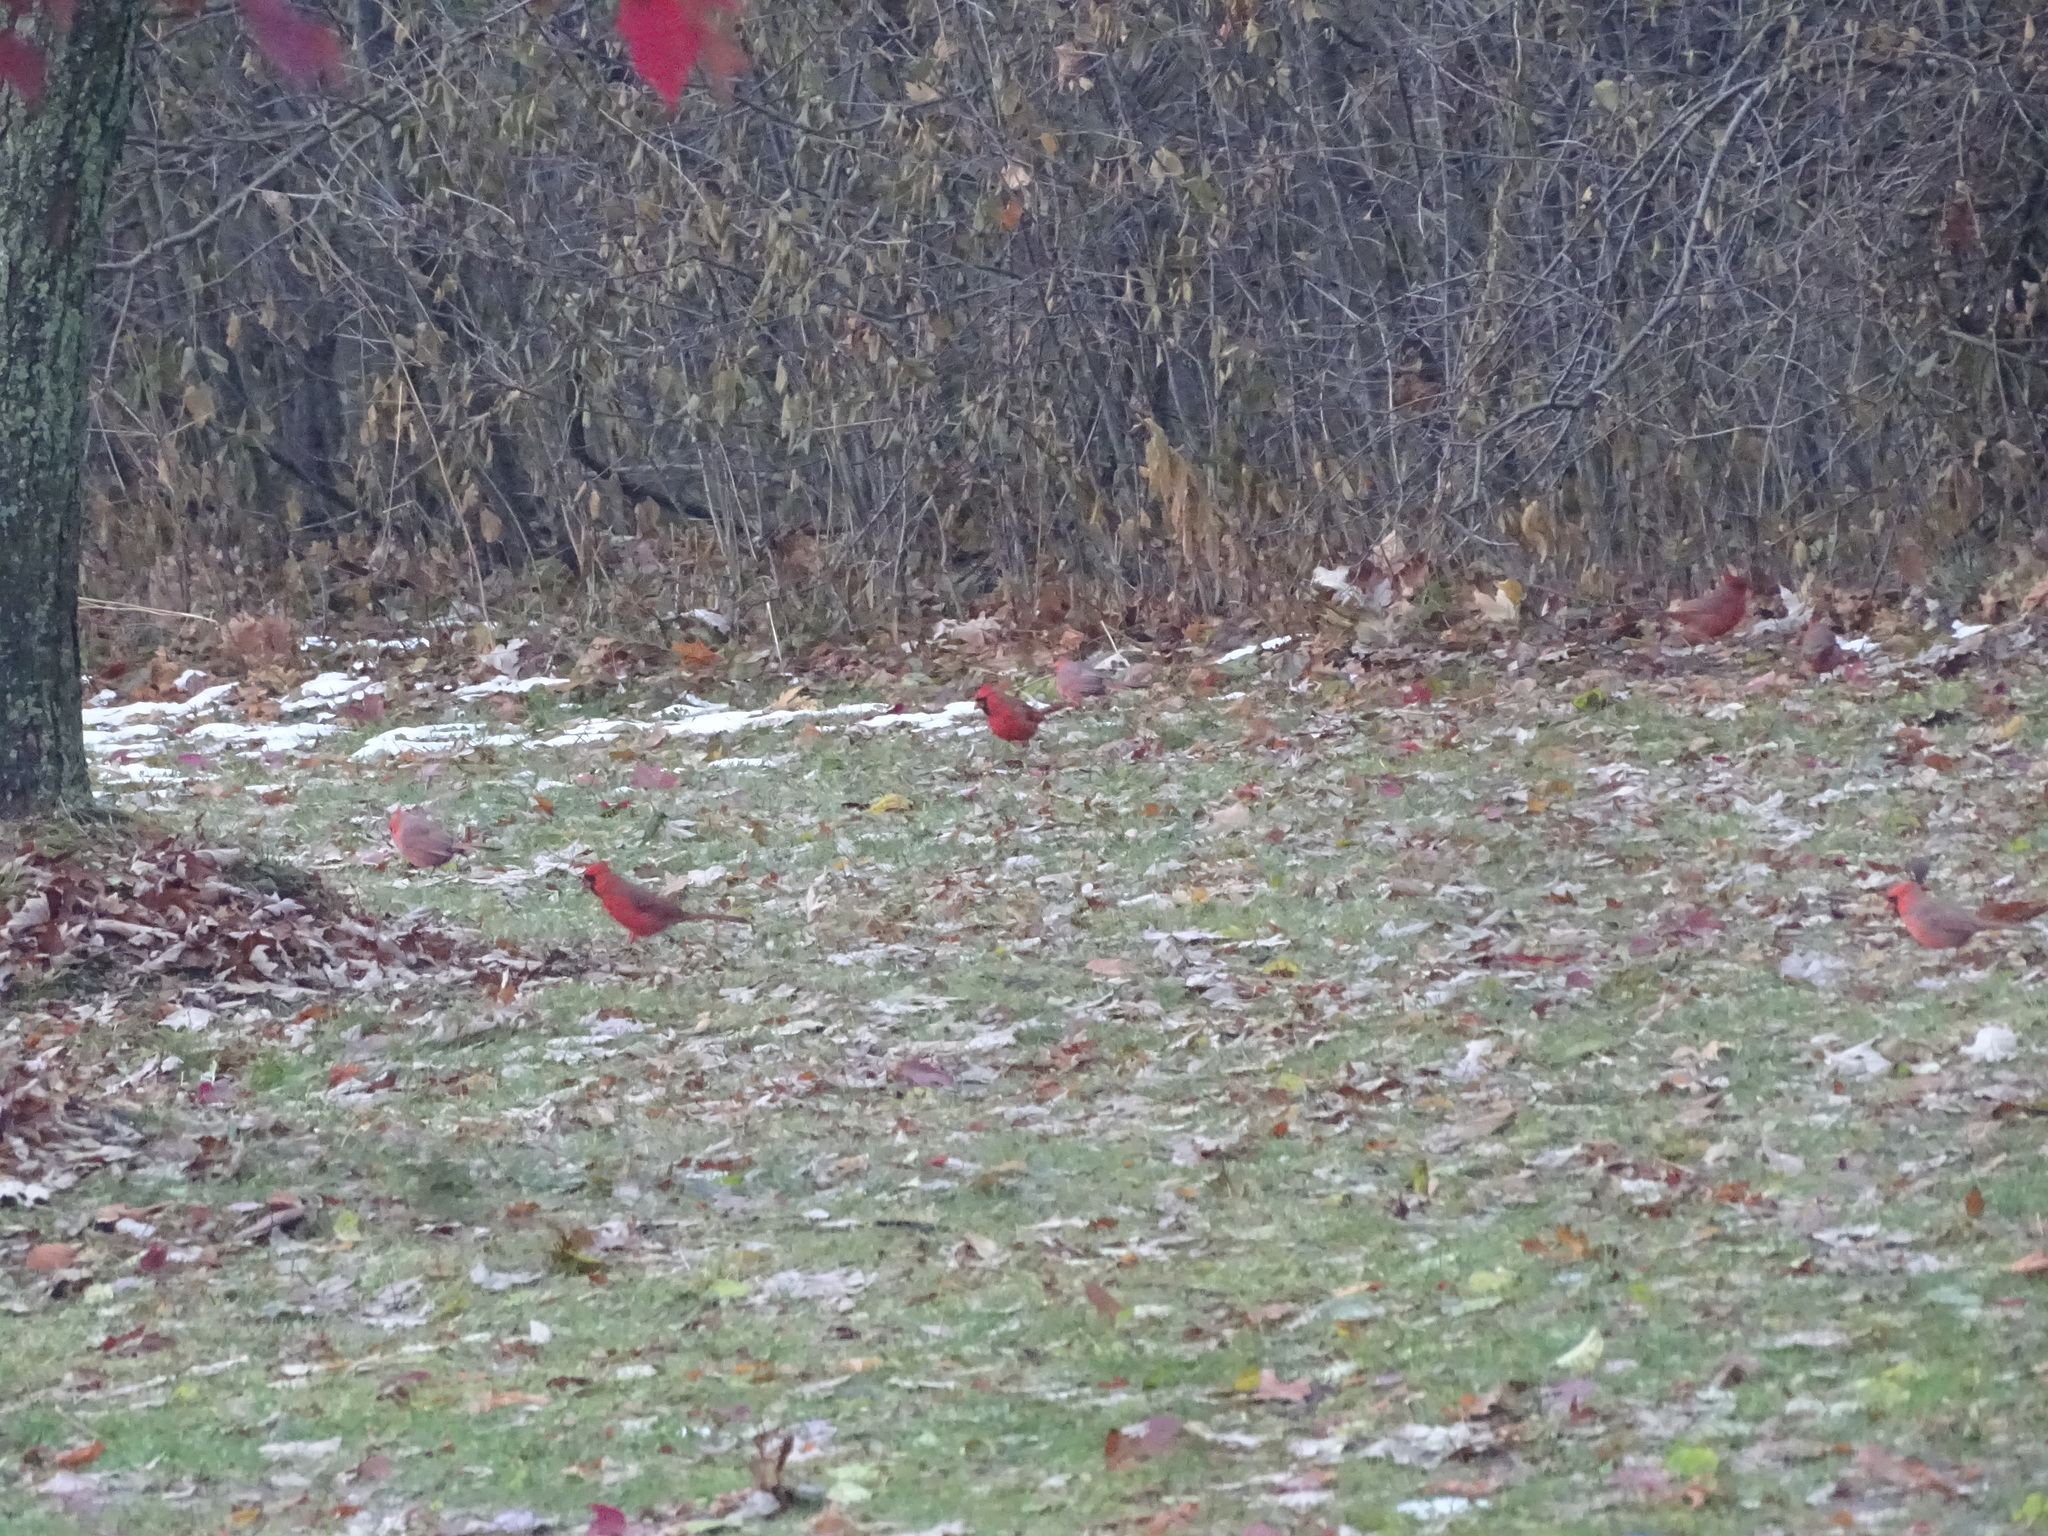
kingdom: Animalia
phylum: Chordata
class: Aves
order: Passeriformes
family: Cardinalidae
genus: Cardinalis
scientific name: Cardinalis cardinalis
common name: Northern cardinal
